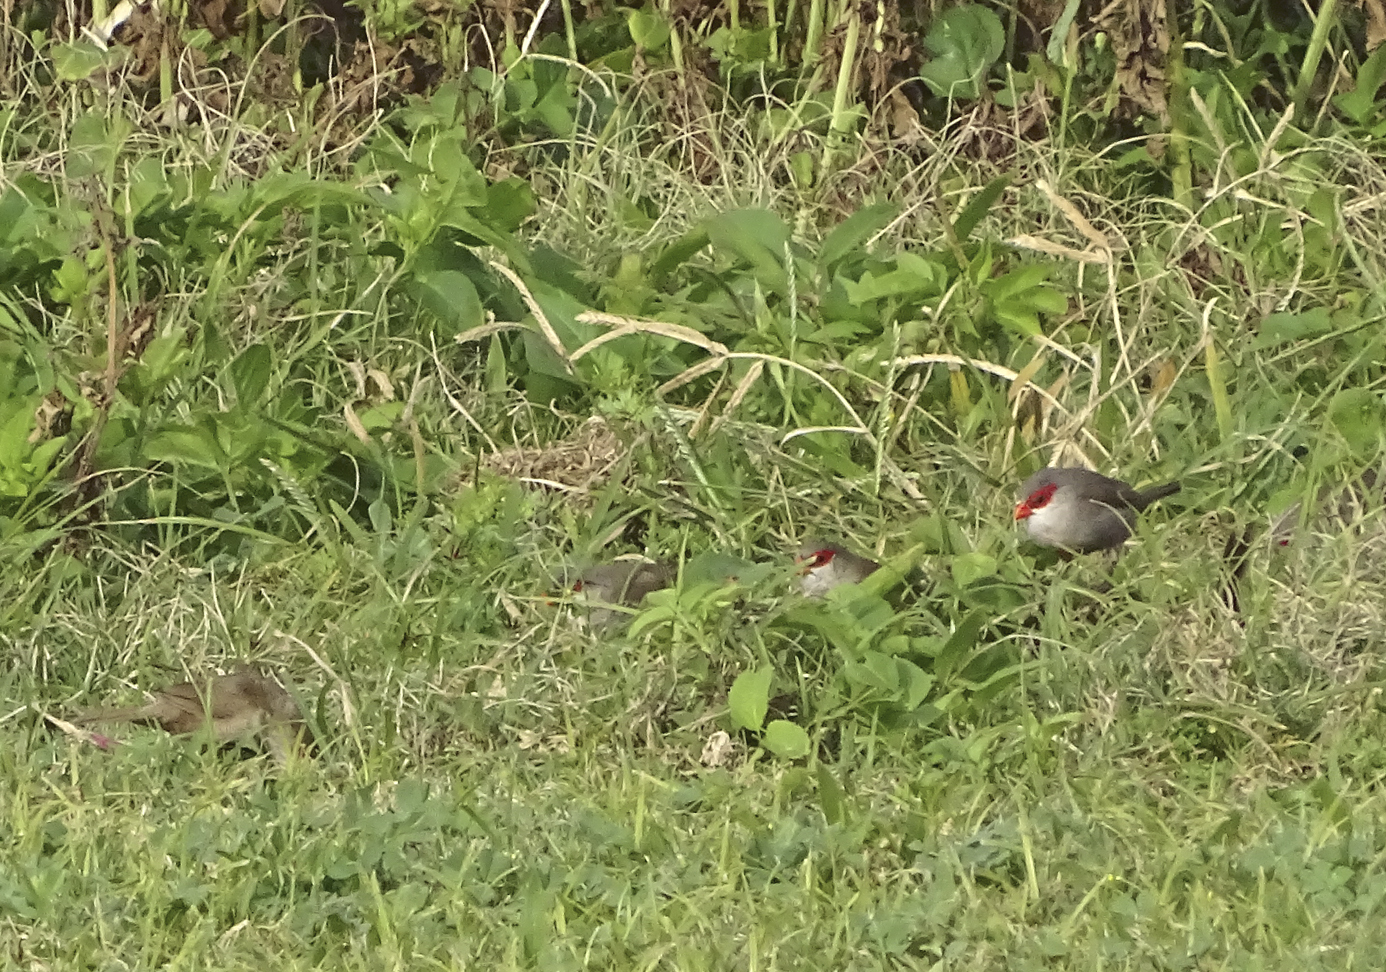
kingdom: Animalia
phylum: Chordata
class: Aves
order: Passeriformes
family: Estrildidae
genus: Estrilda
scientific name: Estrilda astrild
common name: Common waxbill
